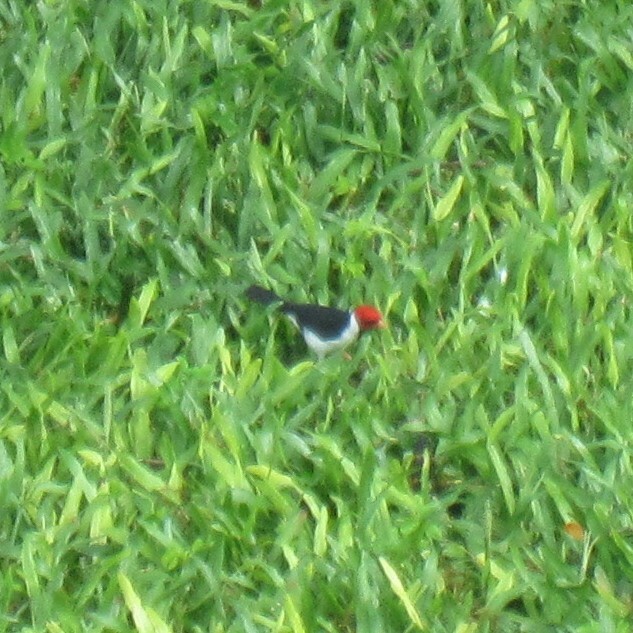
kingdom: Animalia
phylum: Chordata
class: Aves
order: Passeriformes
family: Thraupidae
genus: Paroaria
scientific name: Paroaria capitata
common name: Yellow-billed cardinal
